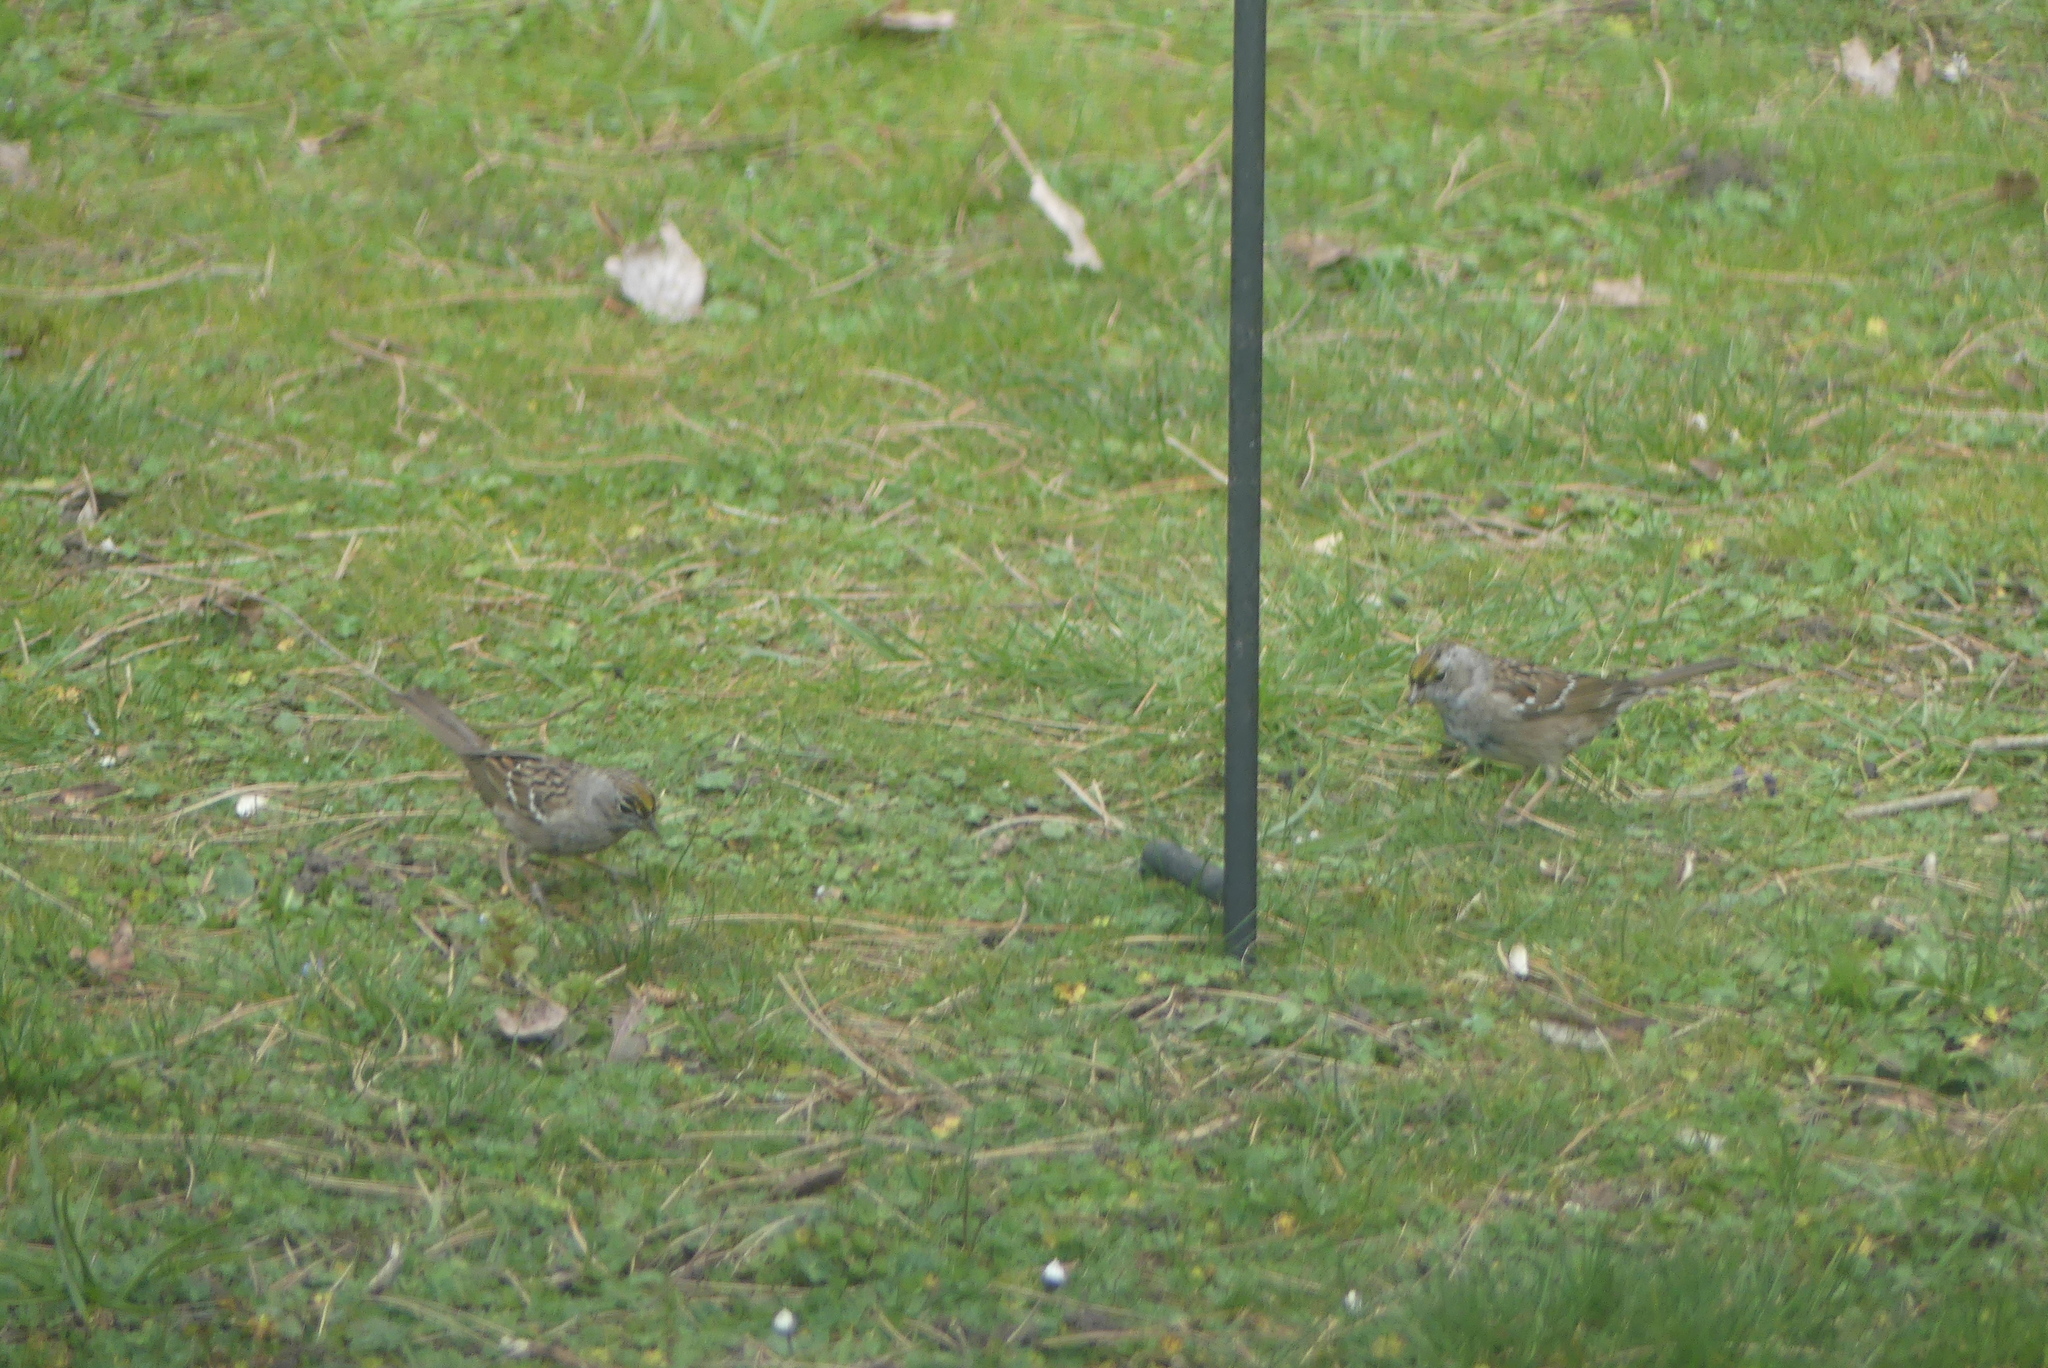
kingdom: Animalia
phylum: Chordata
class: Aves
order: Passeriformes
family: Passerellidae
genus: Zonotrichia
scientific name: Zonotrichia atricapilla
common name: Golden-crowned sparrow
